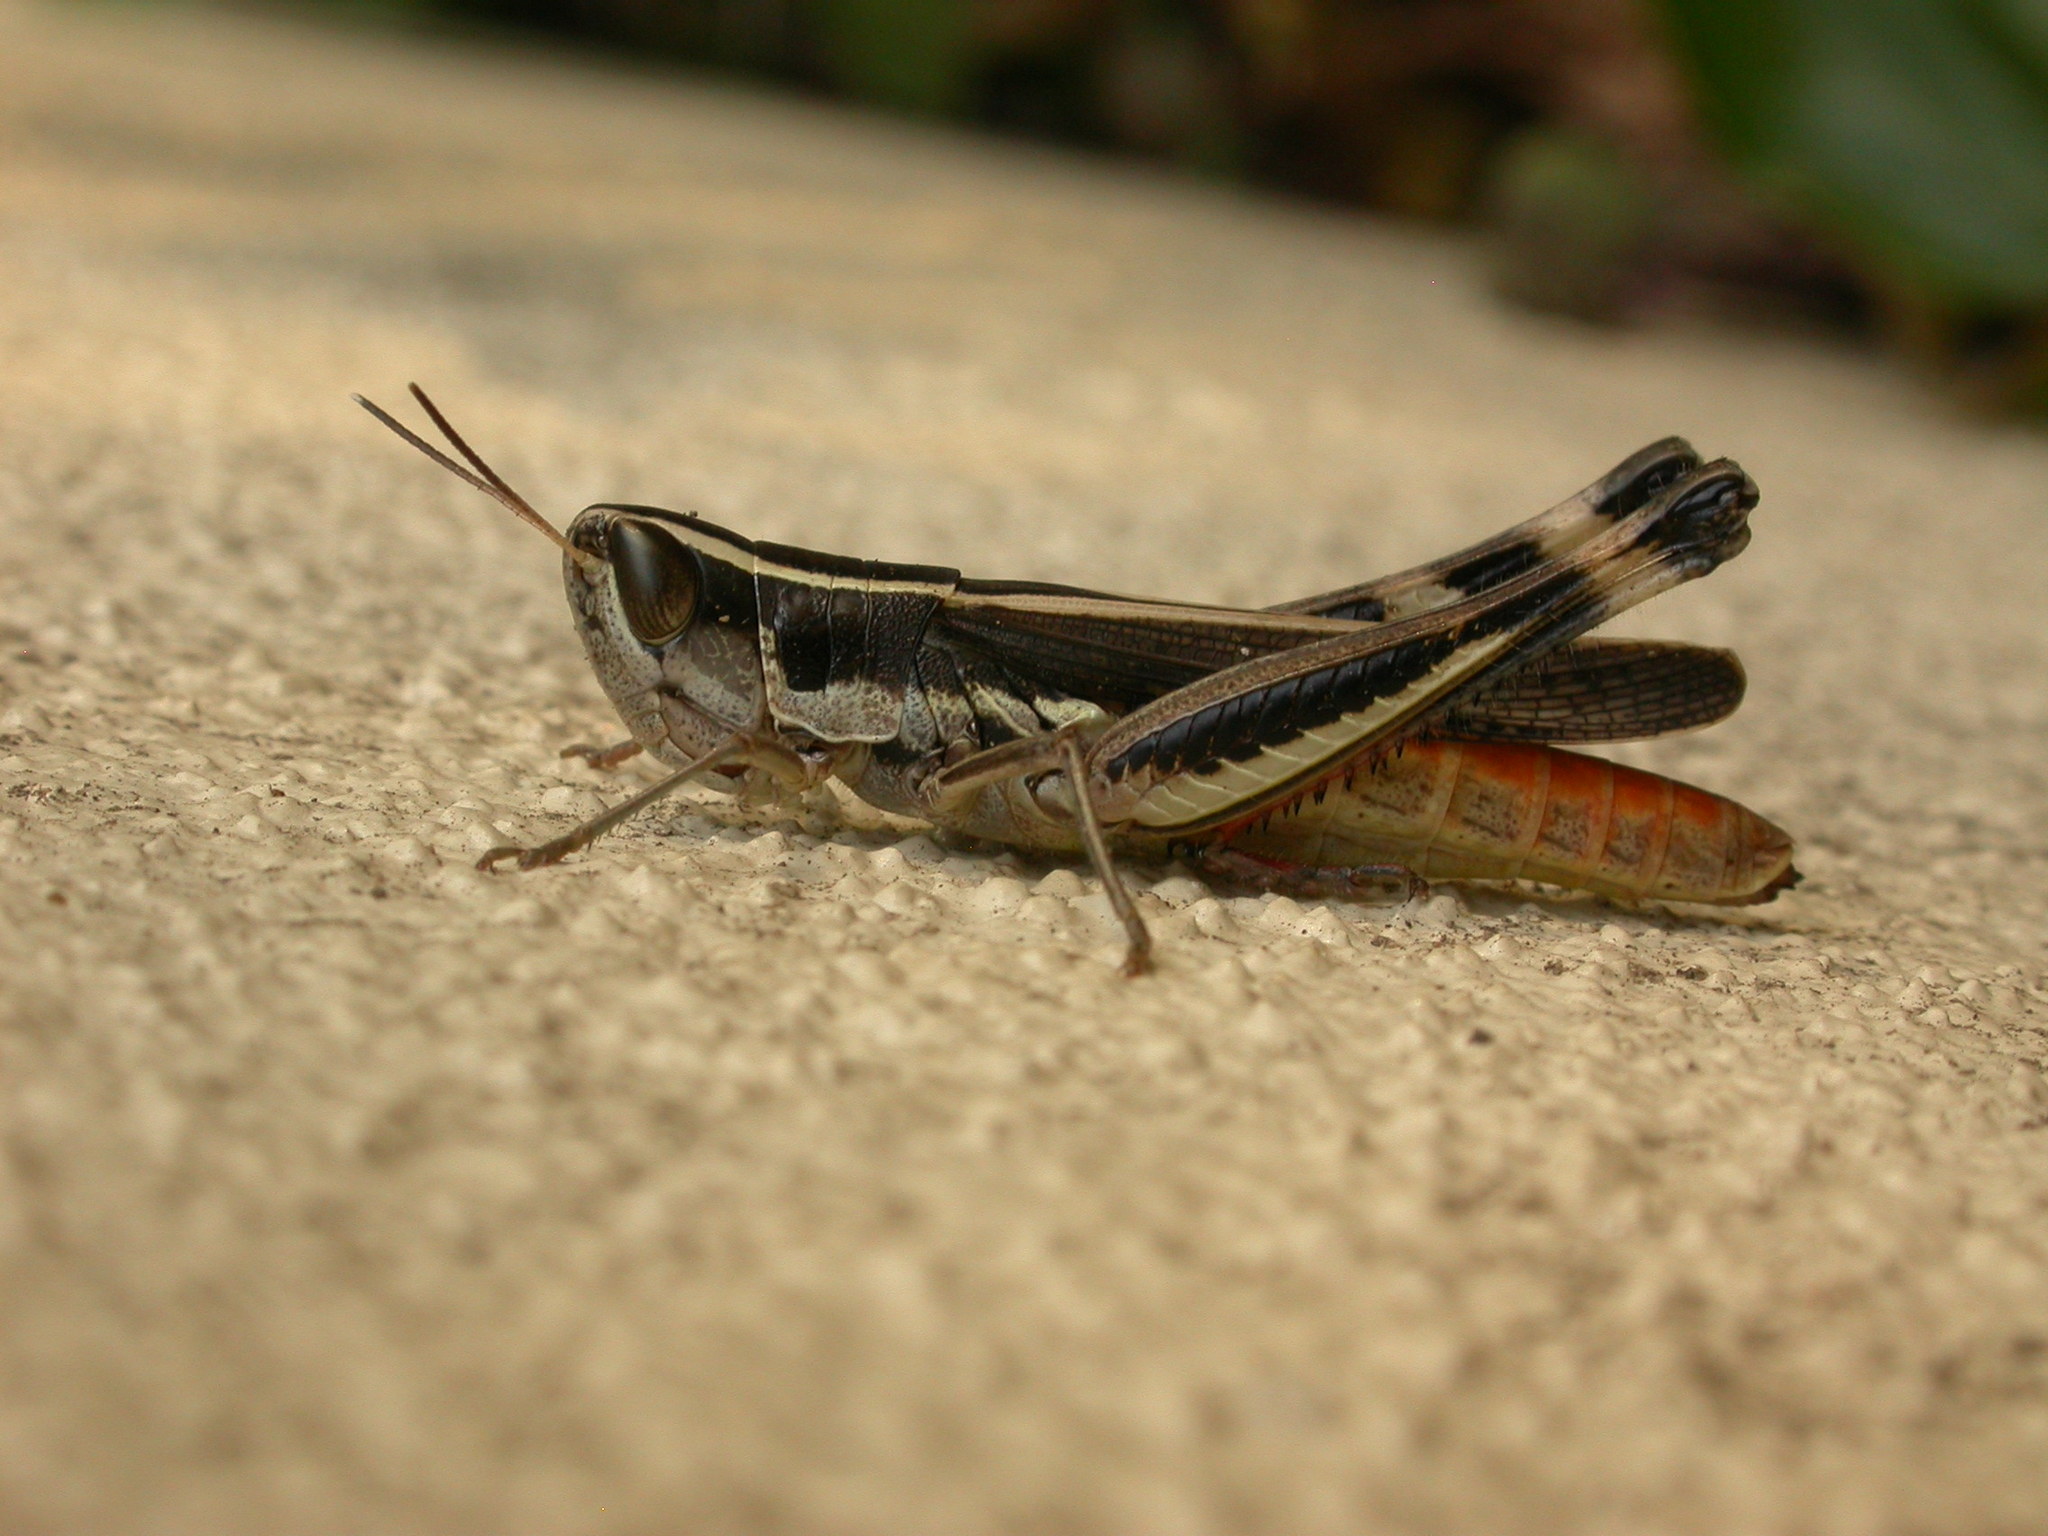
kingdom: Animalia
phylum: Arthropoda
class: Insecta
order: Orthoptera
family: Acrididae
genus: Macrotona
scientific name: Macrotona securiformis
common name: Inland macrotona
